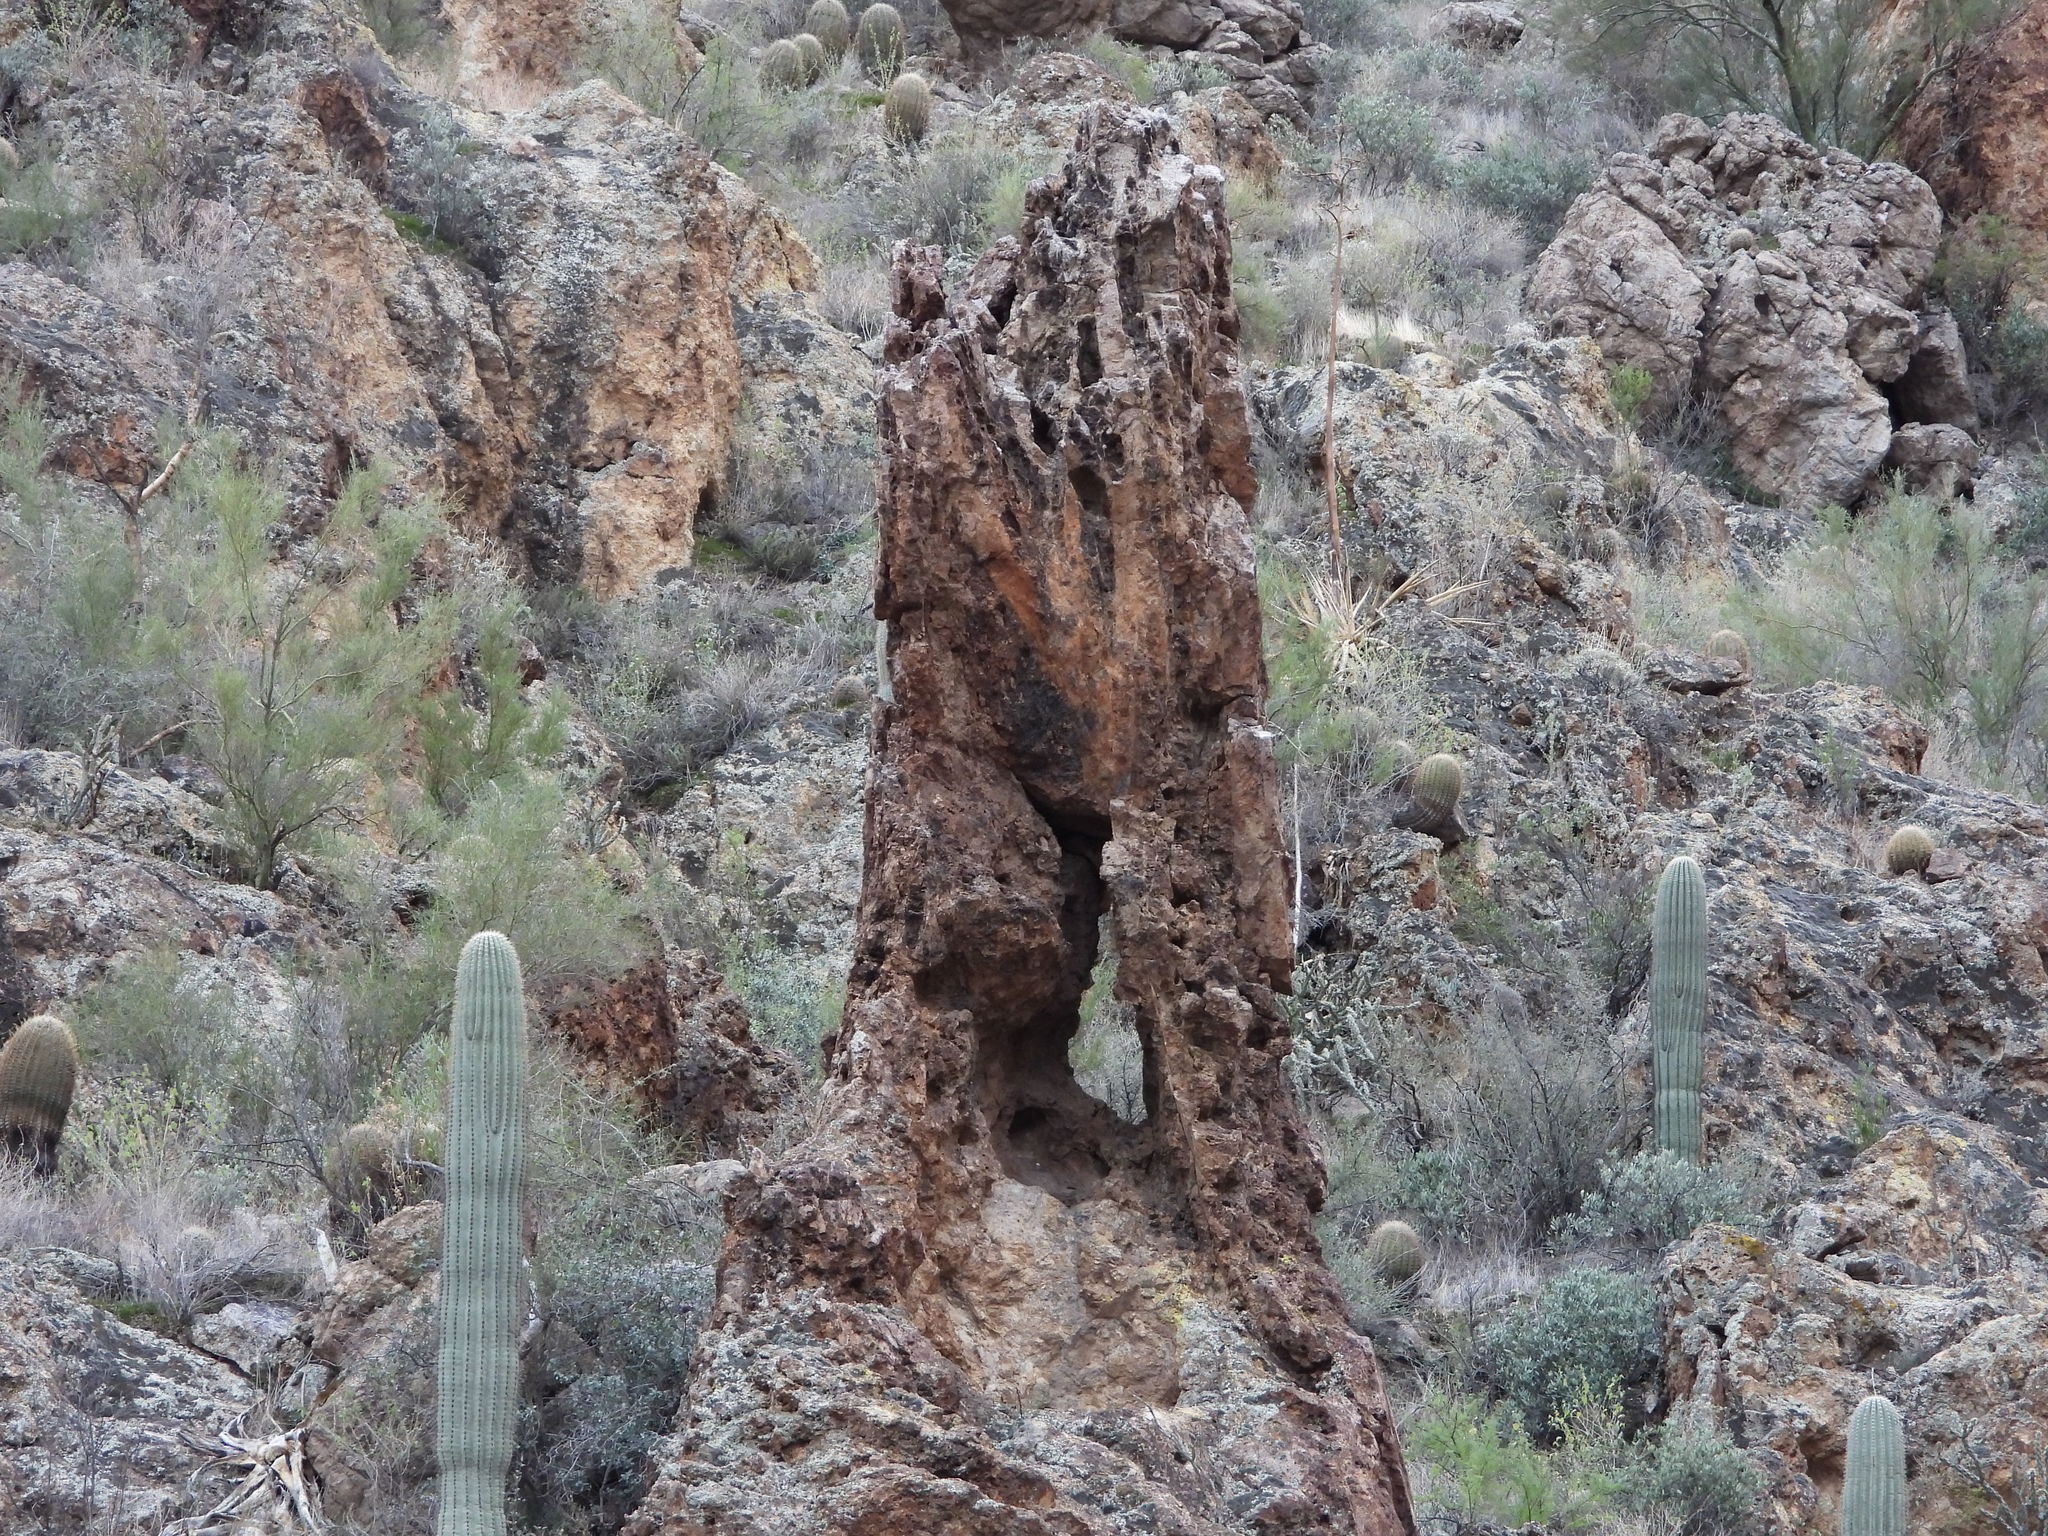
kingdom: Plantae
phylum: Tracheophyta
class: Magnoliopsida
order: Caryophyllales
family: Cactaceae
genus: Carnegiea
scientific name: Carnegiea gigantea
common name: Saguaro
